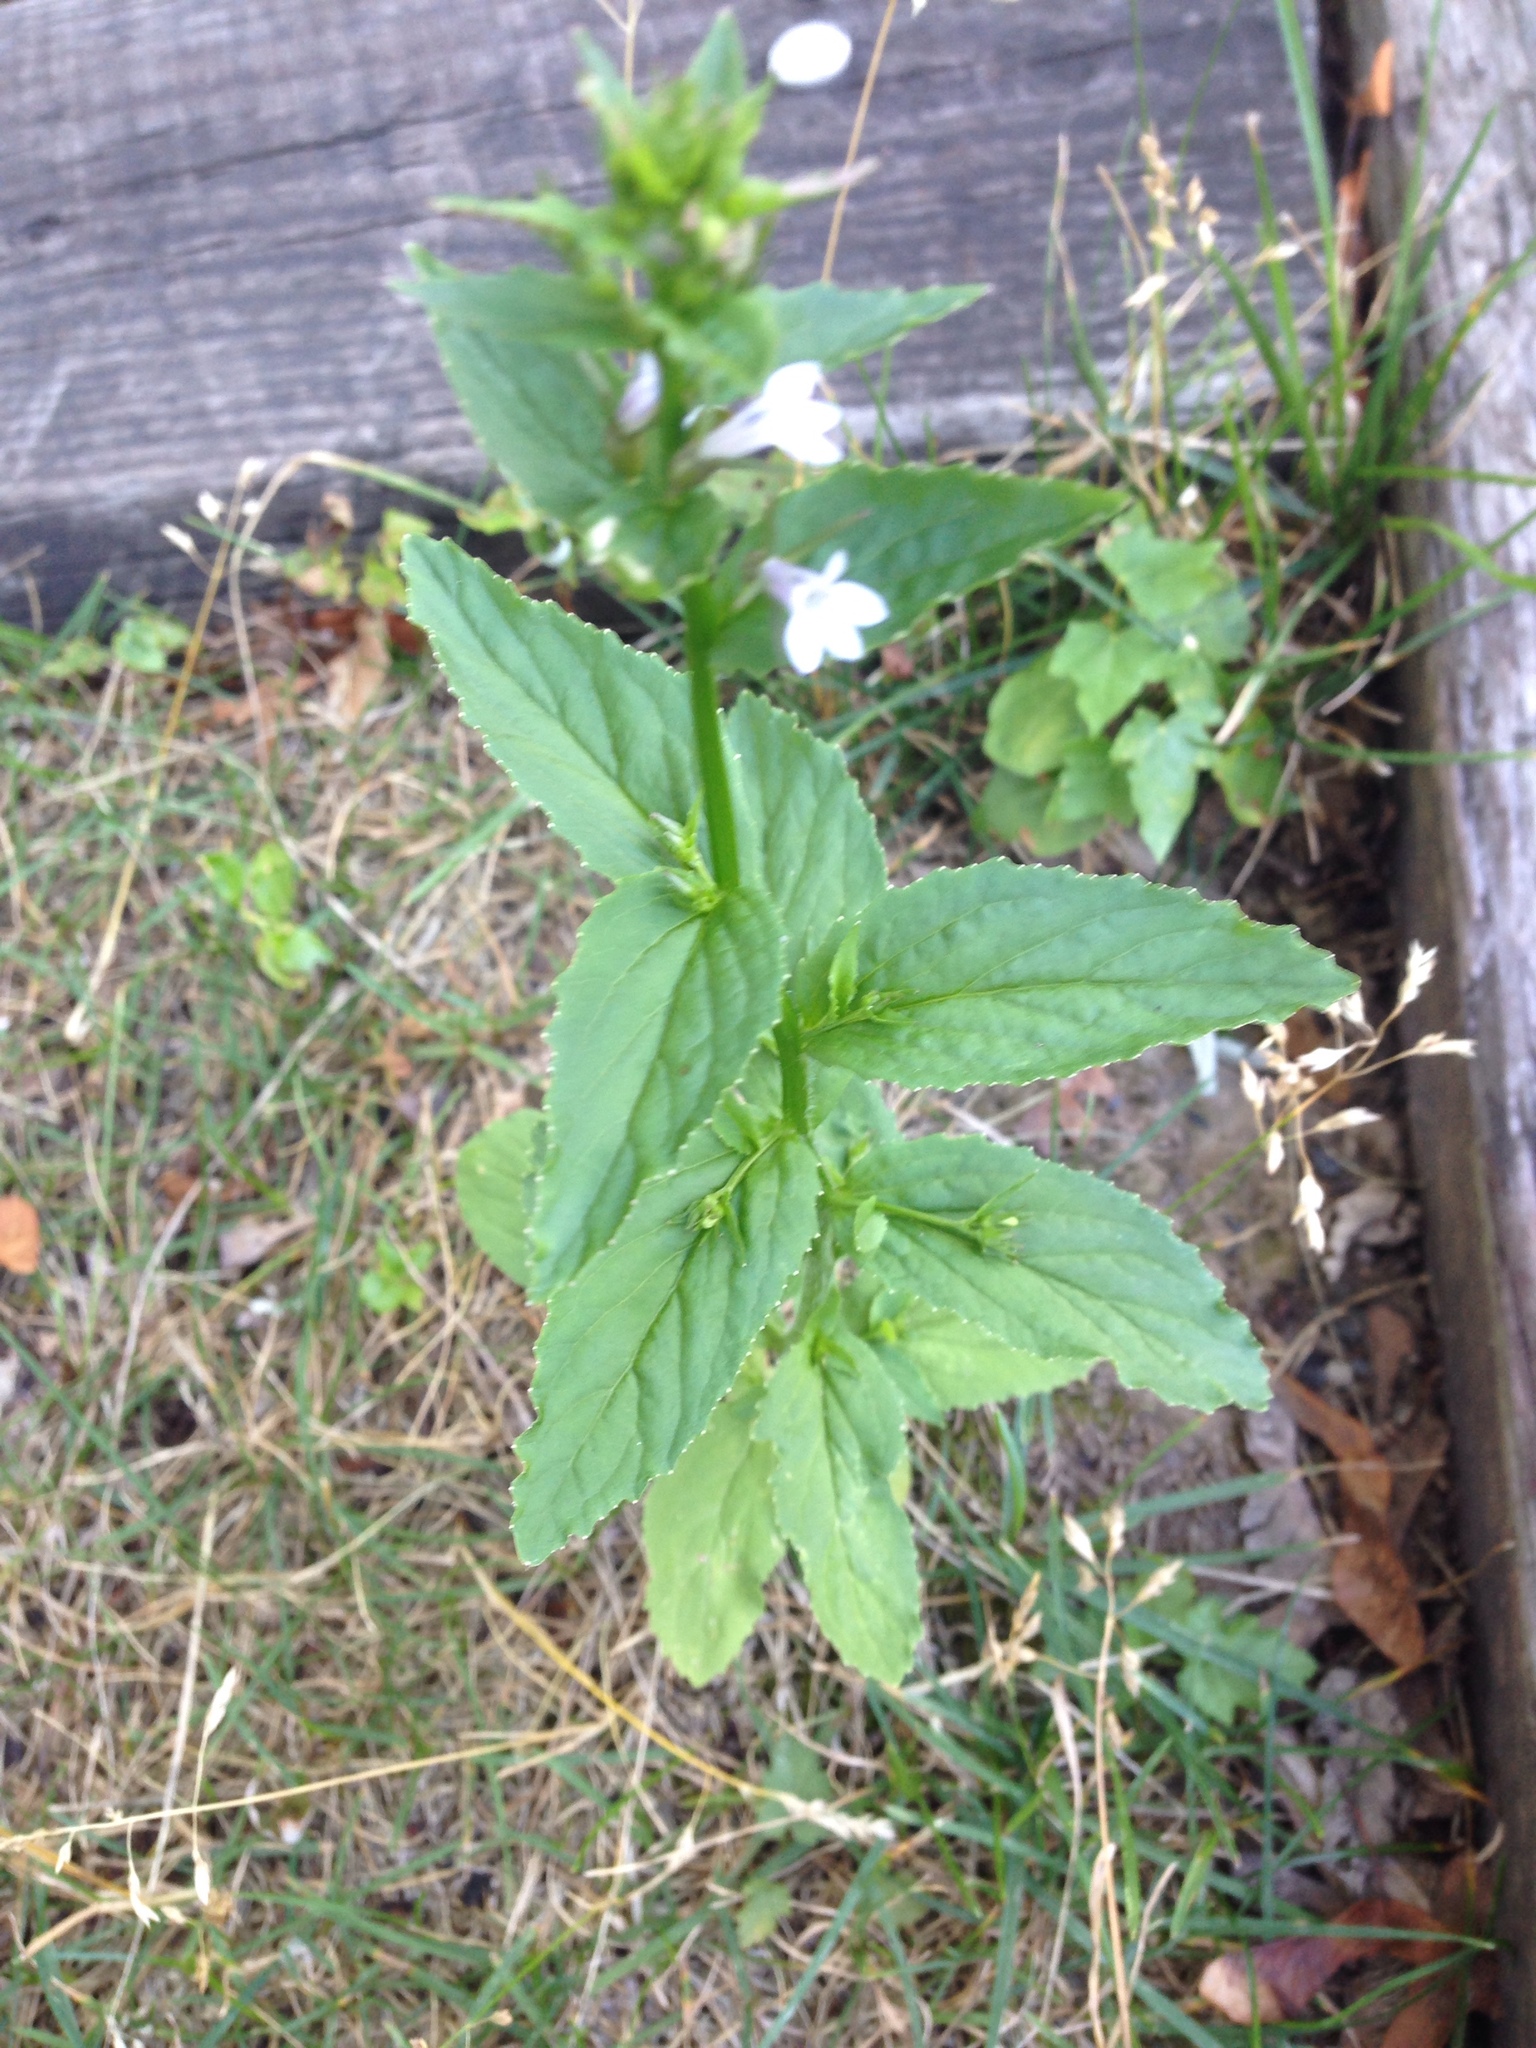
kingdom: Plantae
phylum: Tracheophyta
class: Magnoliopsida
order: Asterales
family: Campanulaceae
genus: Lobelia
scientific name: Lobelia inflata
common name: Indian tobacco
